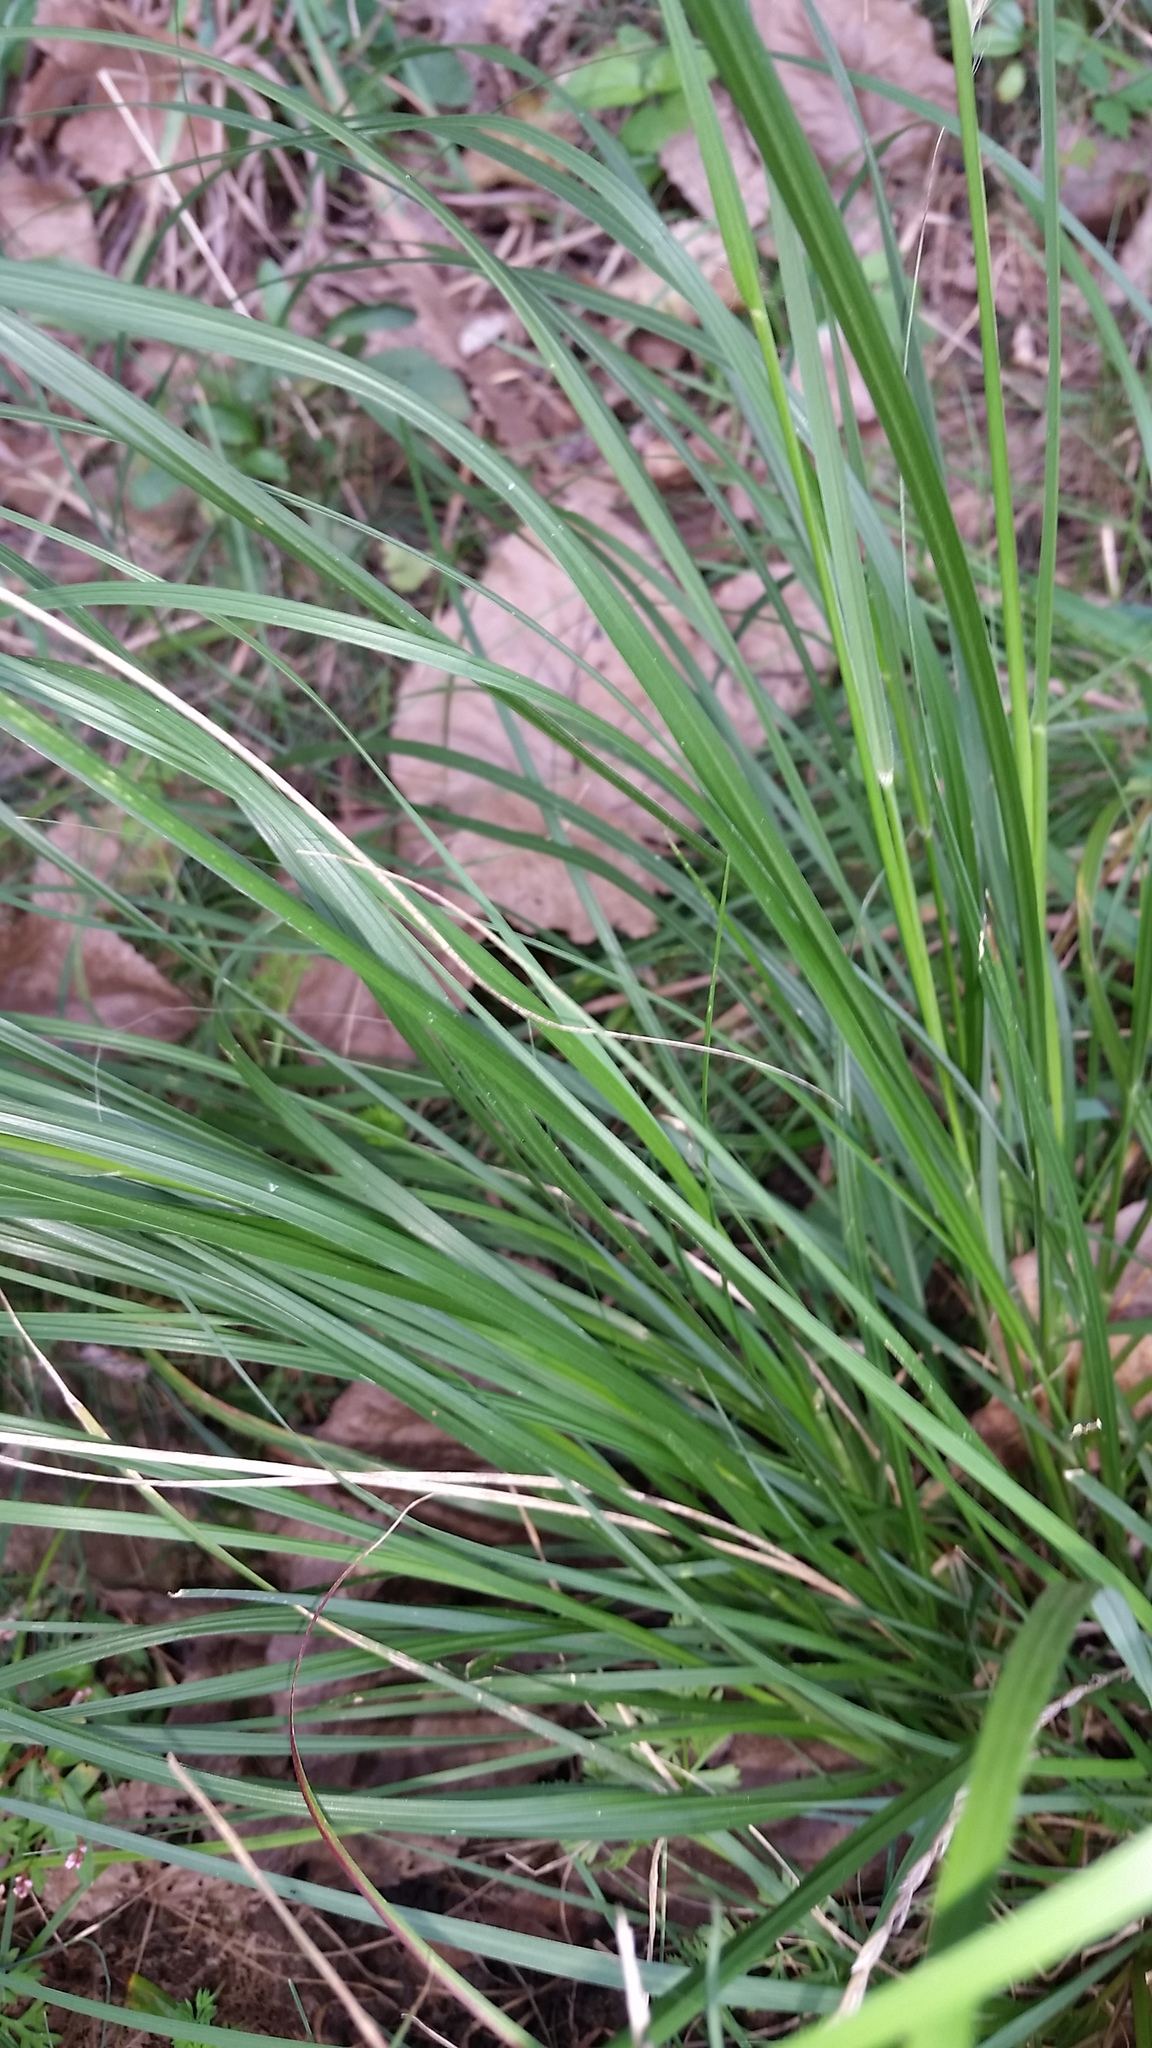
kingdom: Plantae
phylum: Tracheophyta
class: Liliopsida
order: Poales
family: Poaceae
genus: Cenchrus
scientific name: Cenchrus alopecuroides
